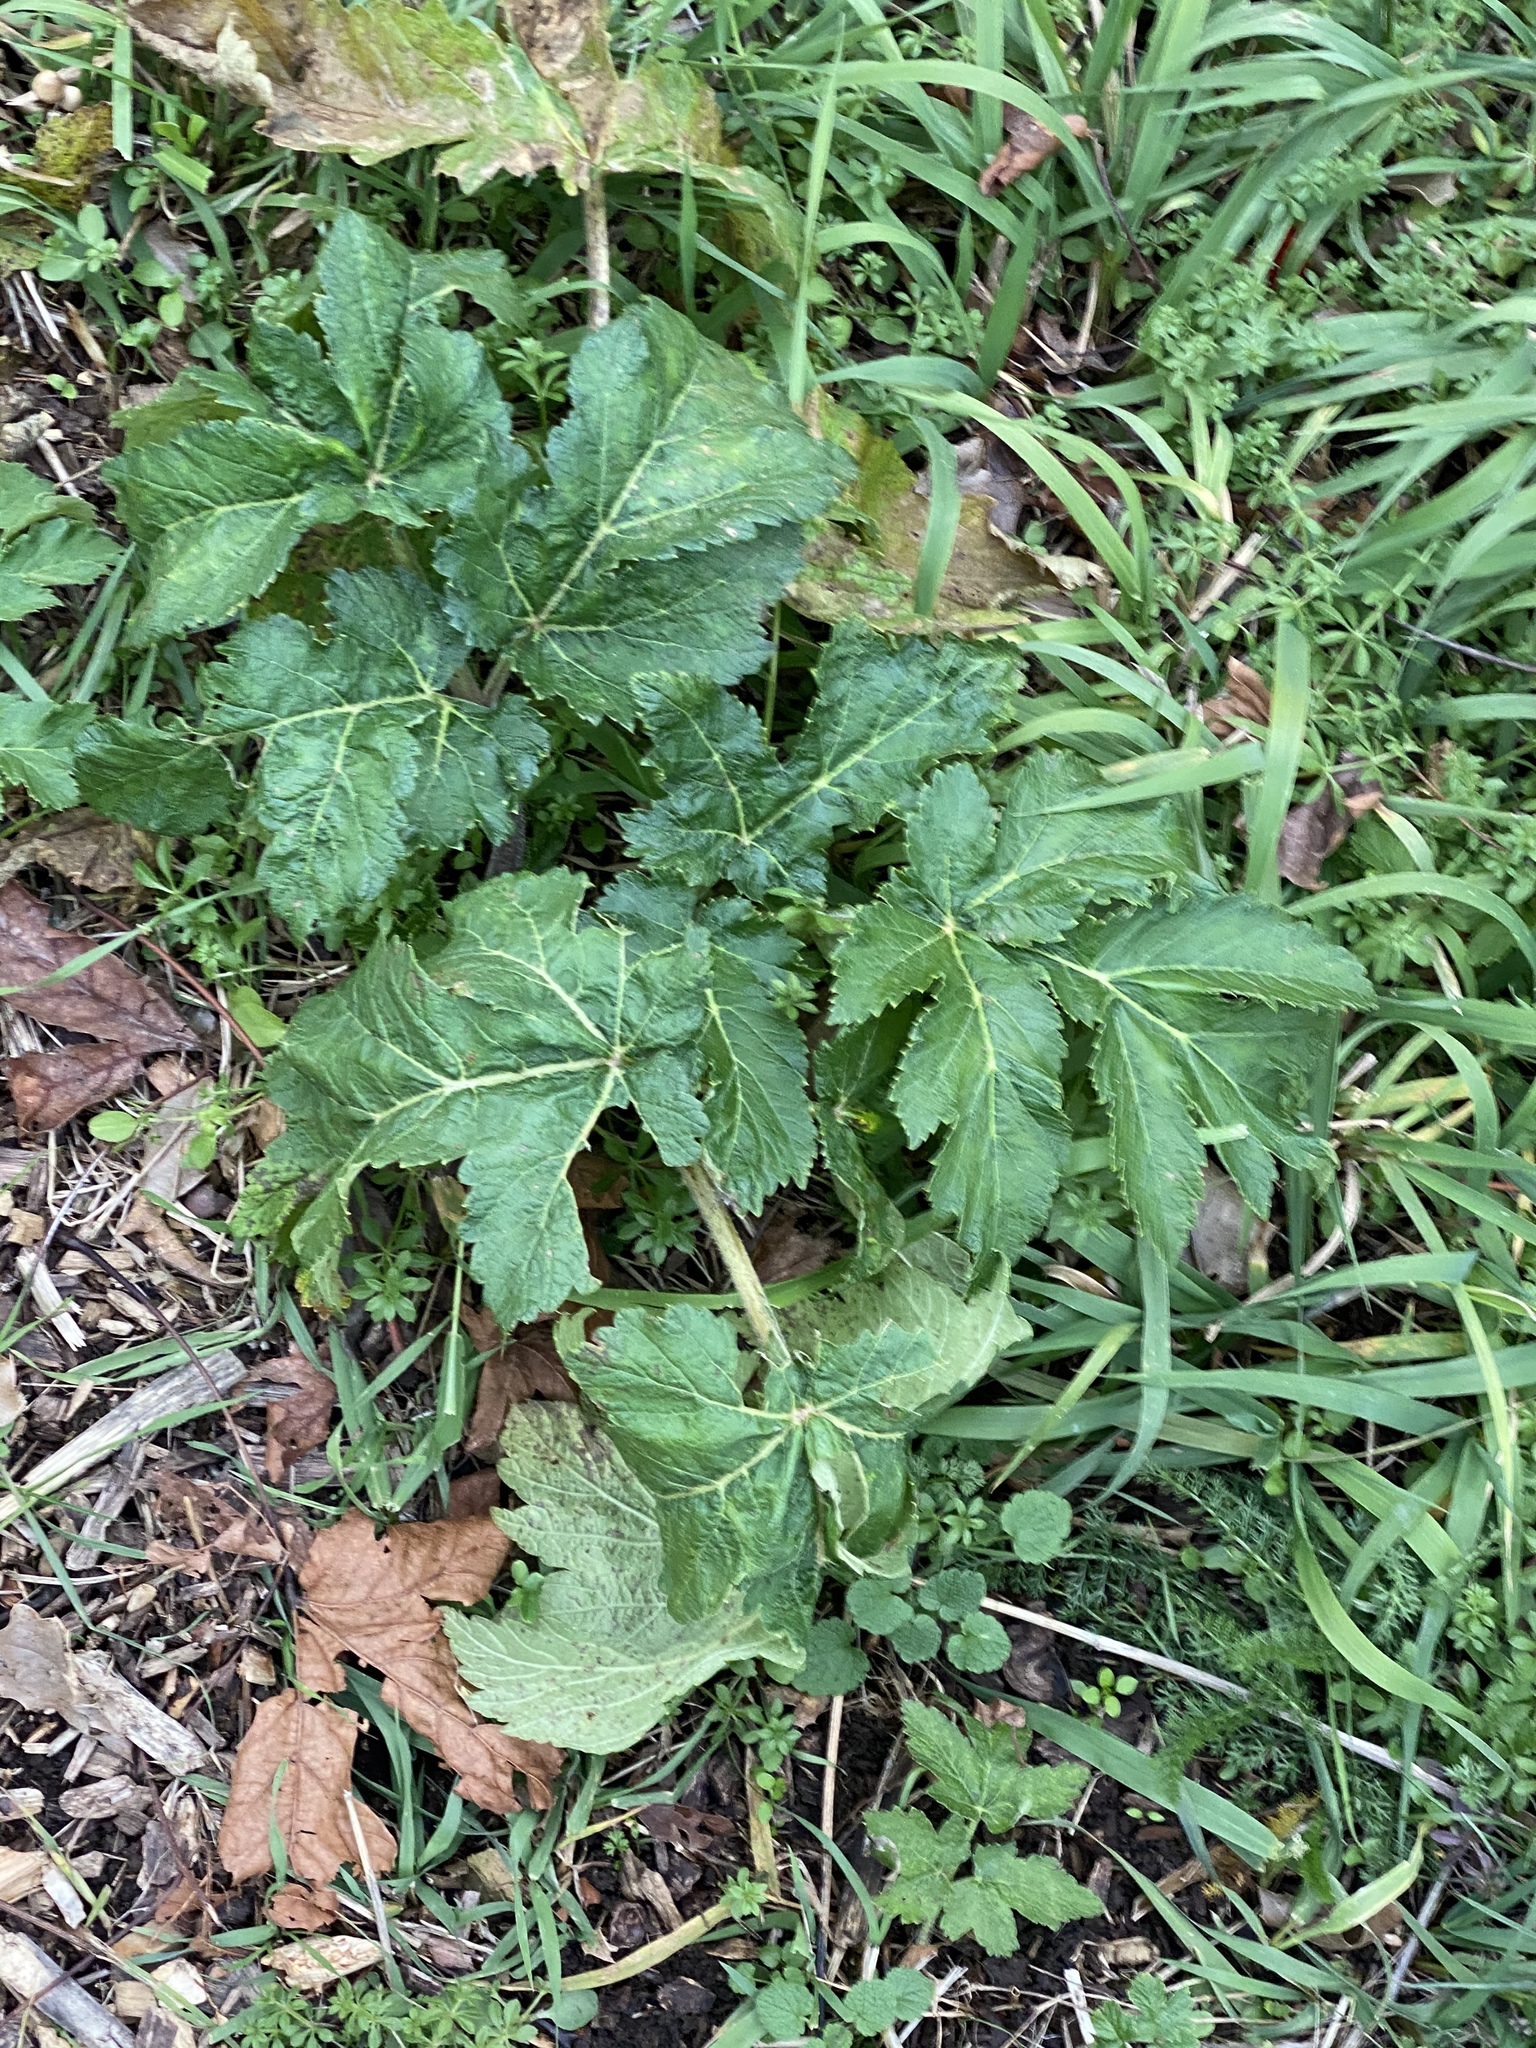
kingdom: Plantae
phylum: Tracheophyta
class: Magnoliopsida
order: Apiales
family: Apiaceae
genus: Heracleum
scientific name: Heracleum maximum
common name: American cow parsnip
